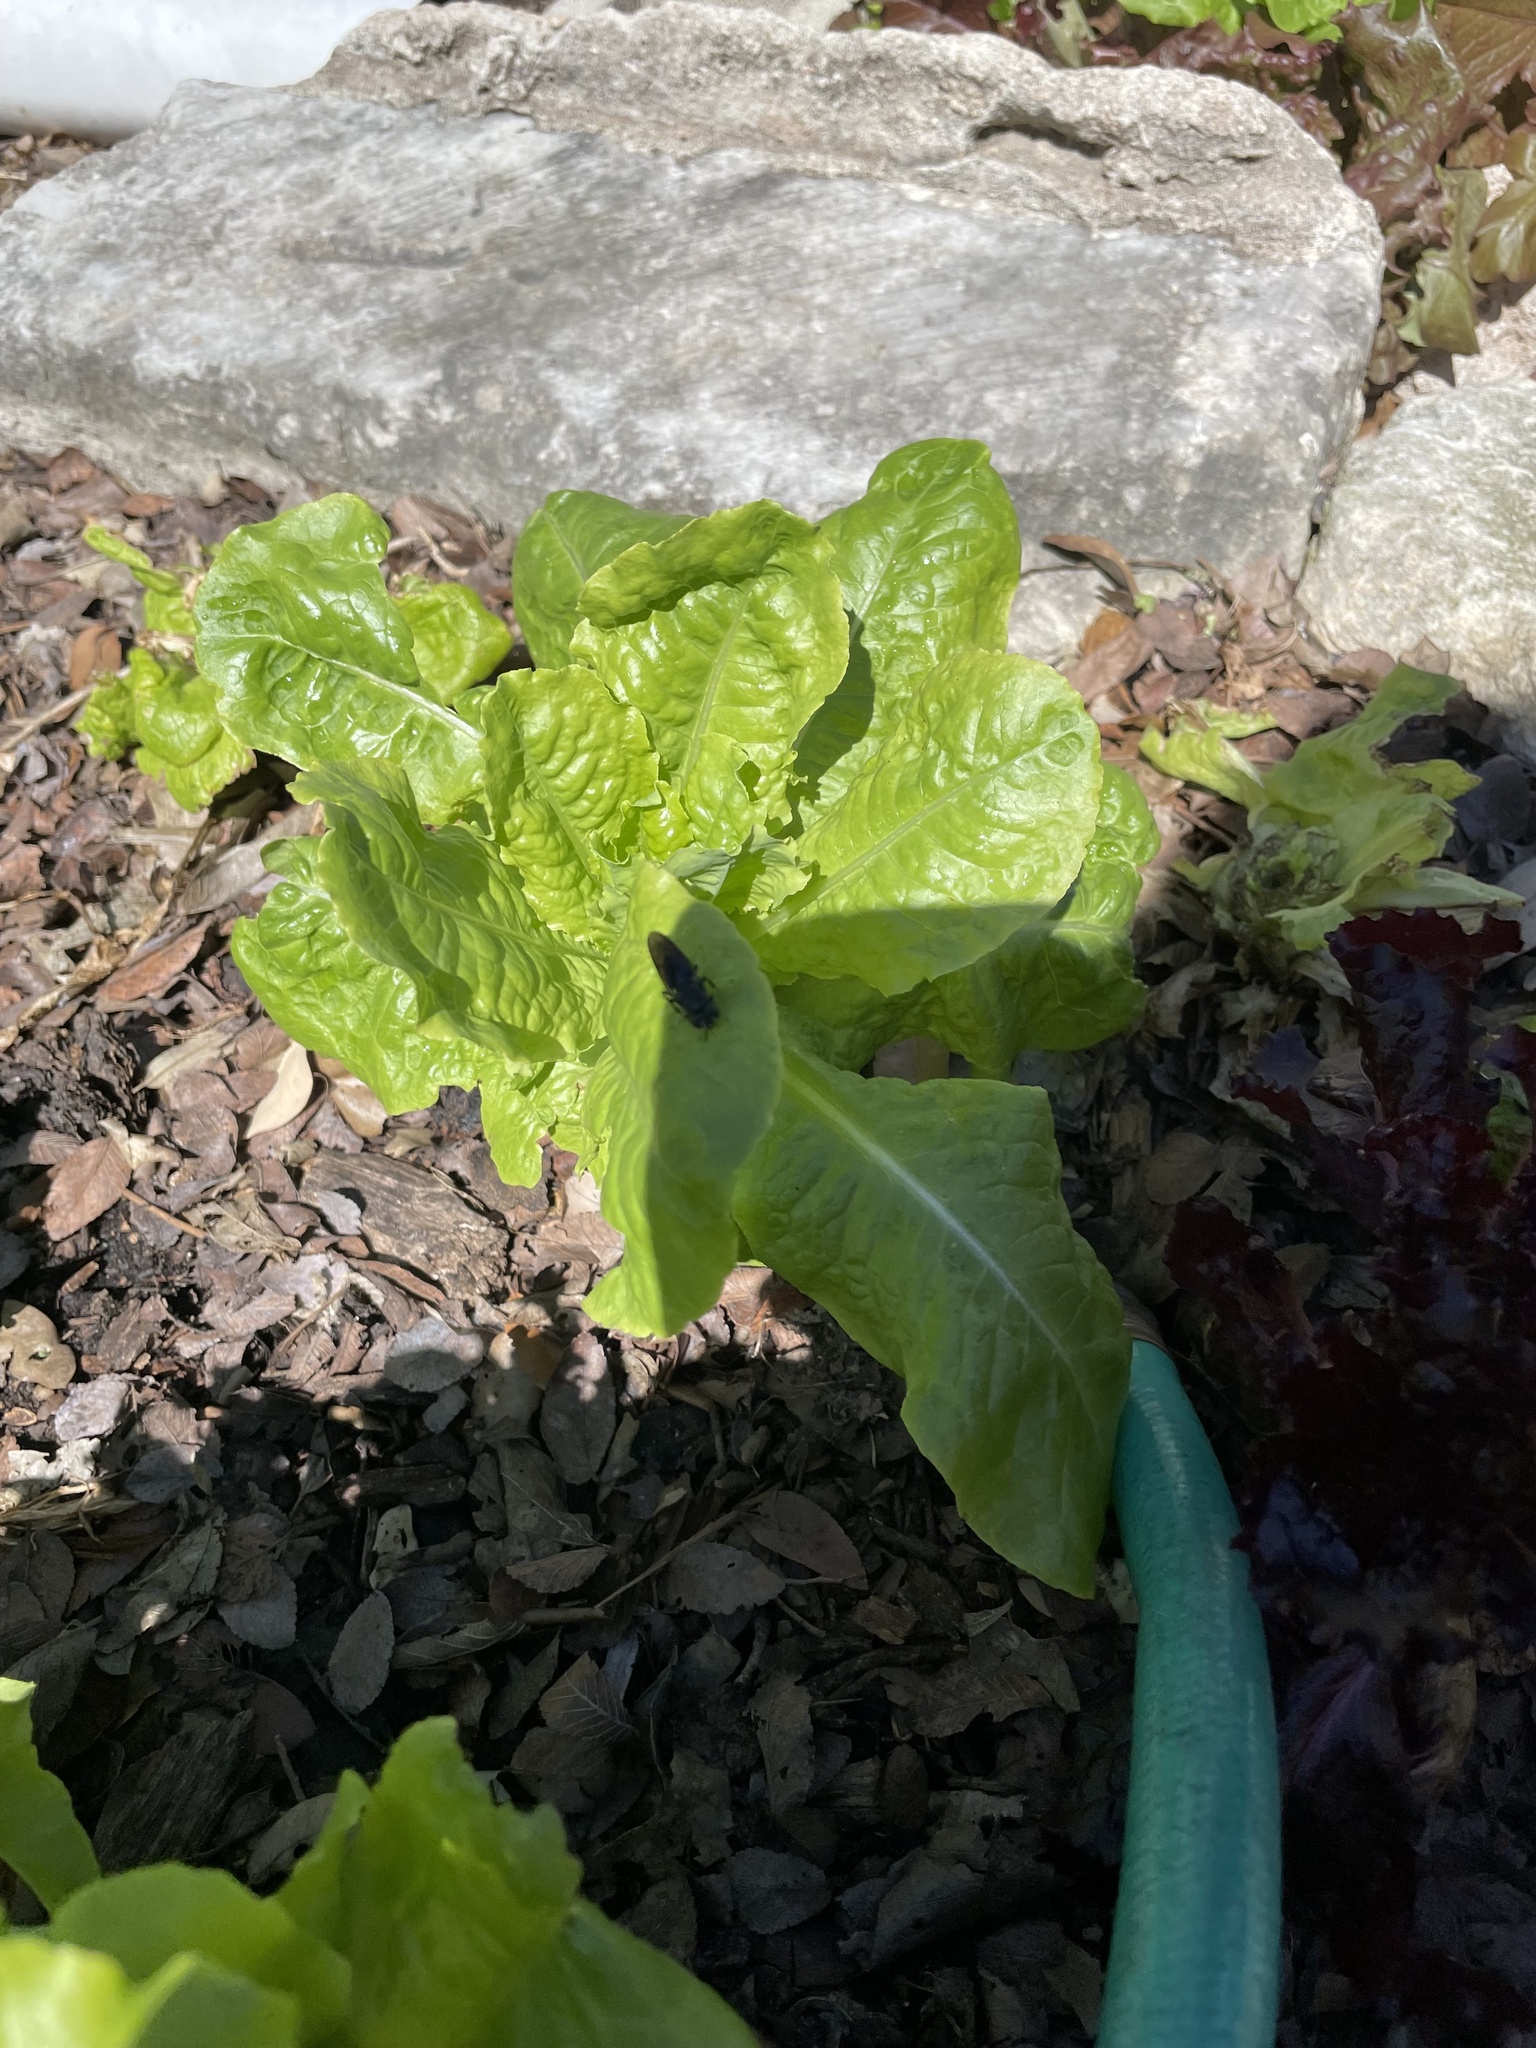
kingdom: Animalia
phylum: Arthropoda
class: Insecta
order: Diptera
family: Stratiomyidae
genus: Hermetia
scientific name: Hermetia illucens
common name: Black soldier fly
